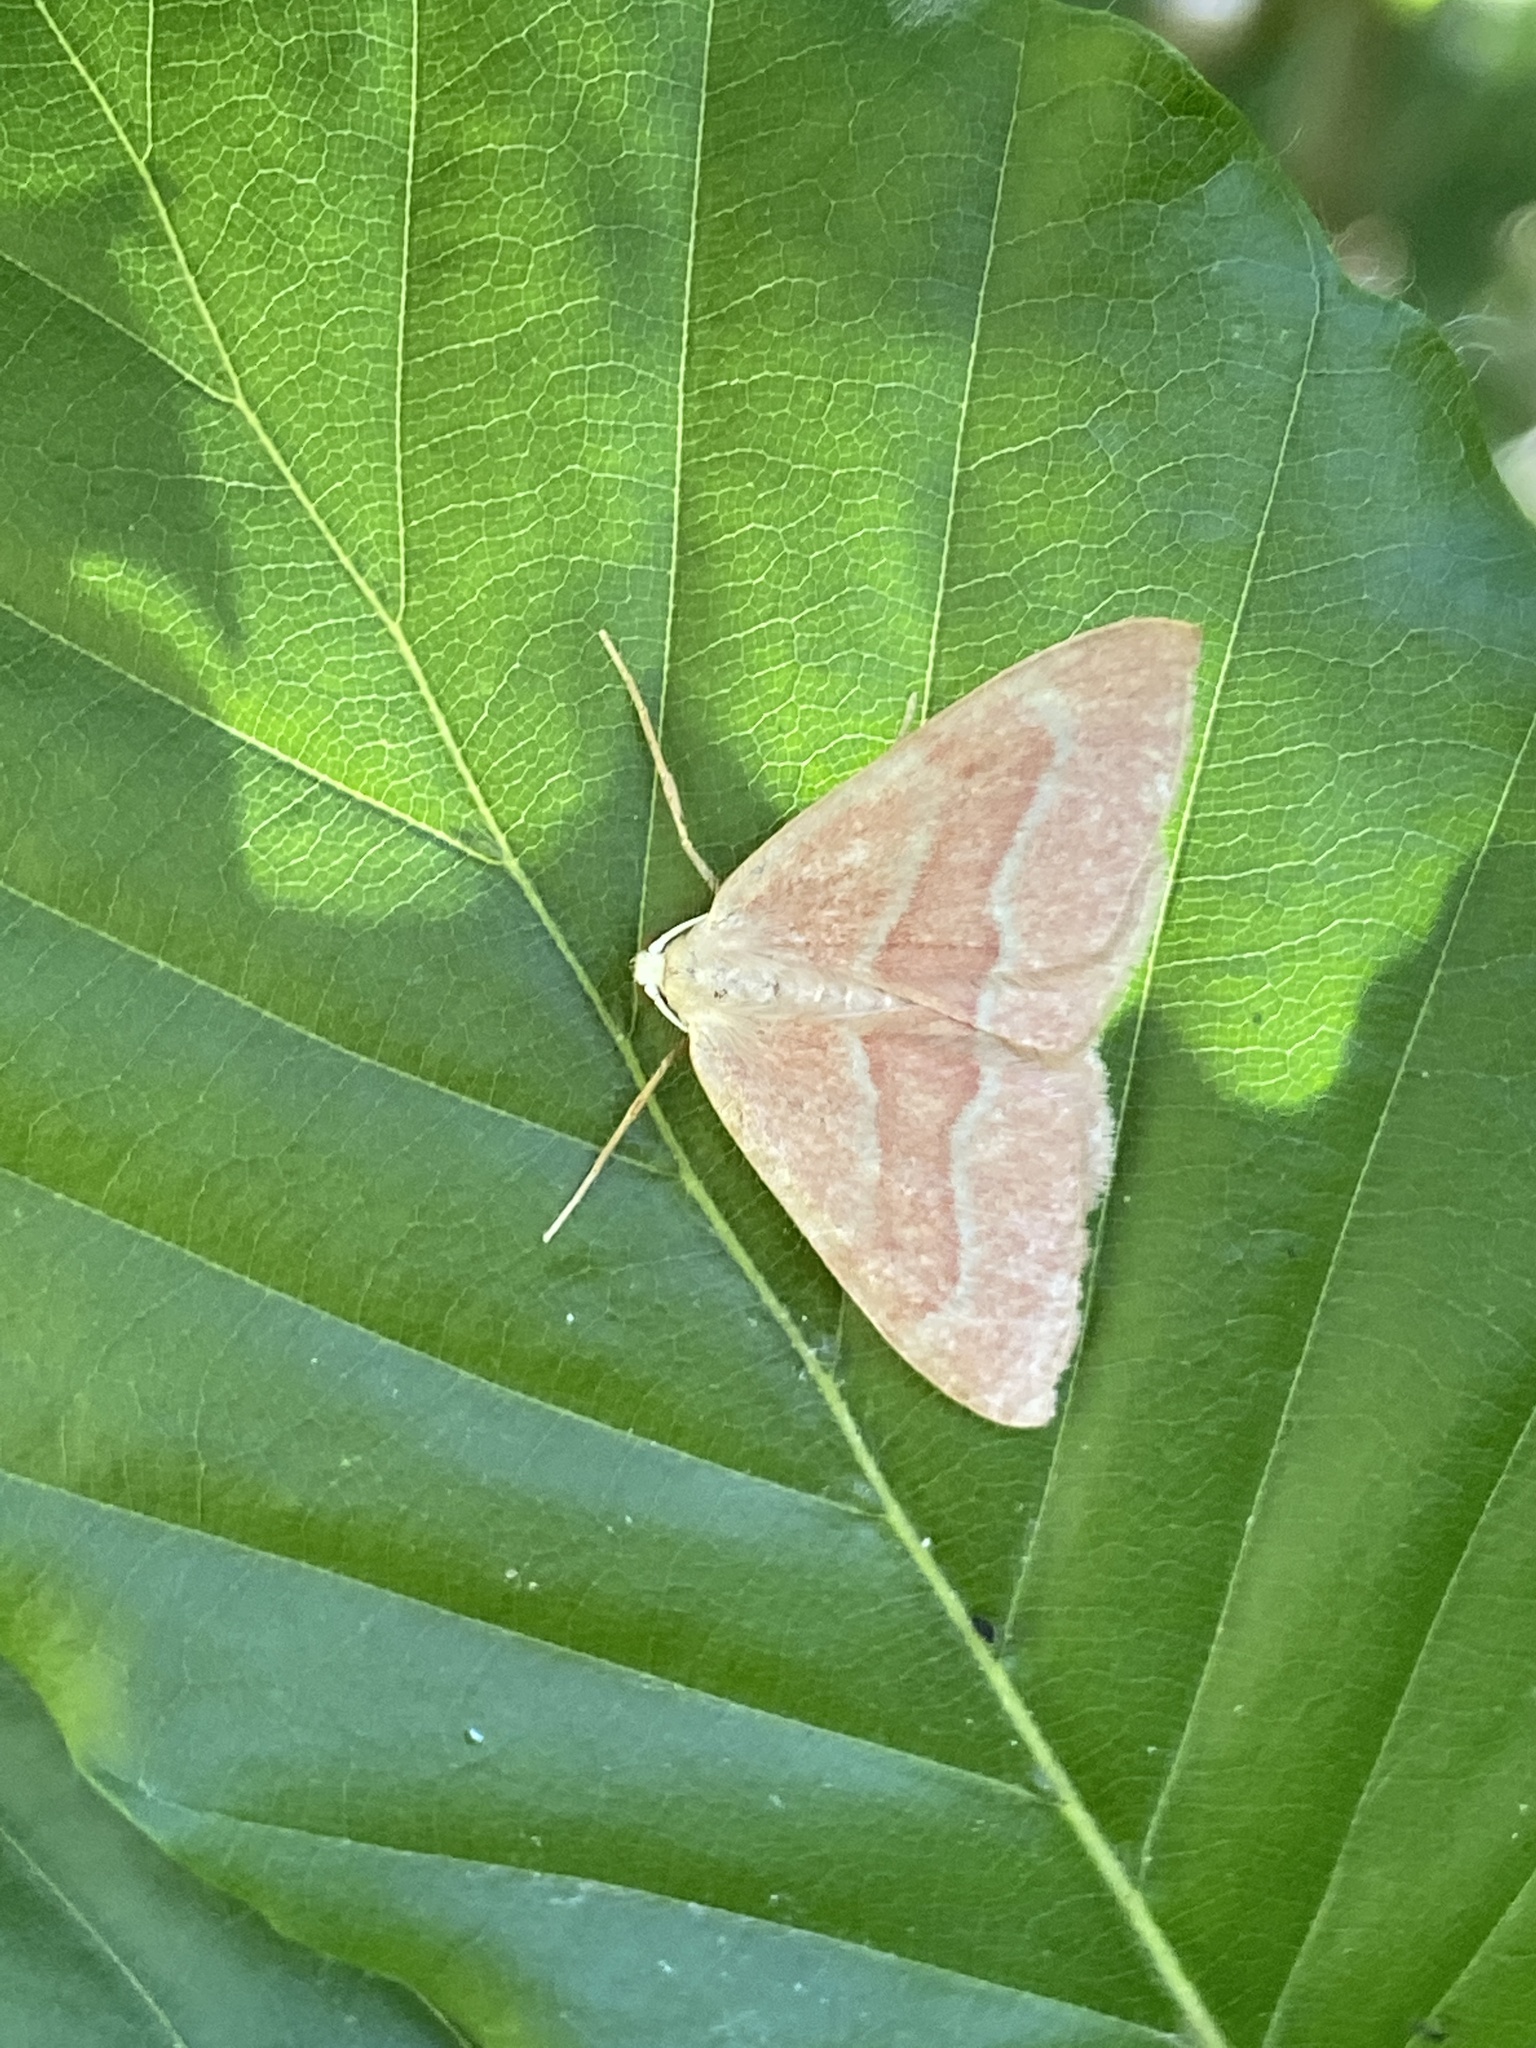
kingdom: Animalia
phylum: Arthropoda
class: Insecta
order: Lepidoptera
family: Geometridae
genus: Hylaea
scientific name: Hylaea fasciaria
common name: Barred red
